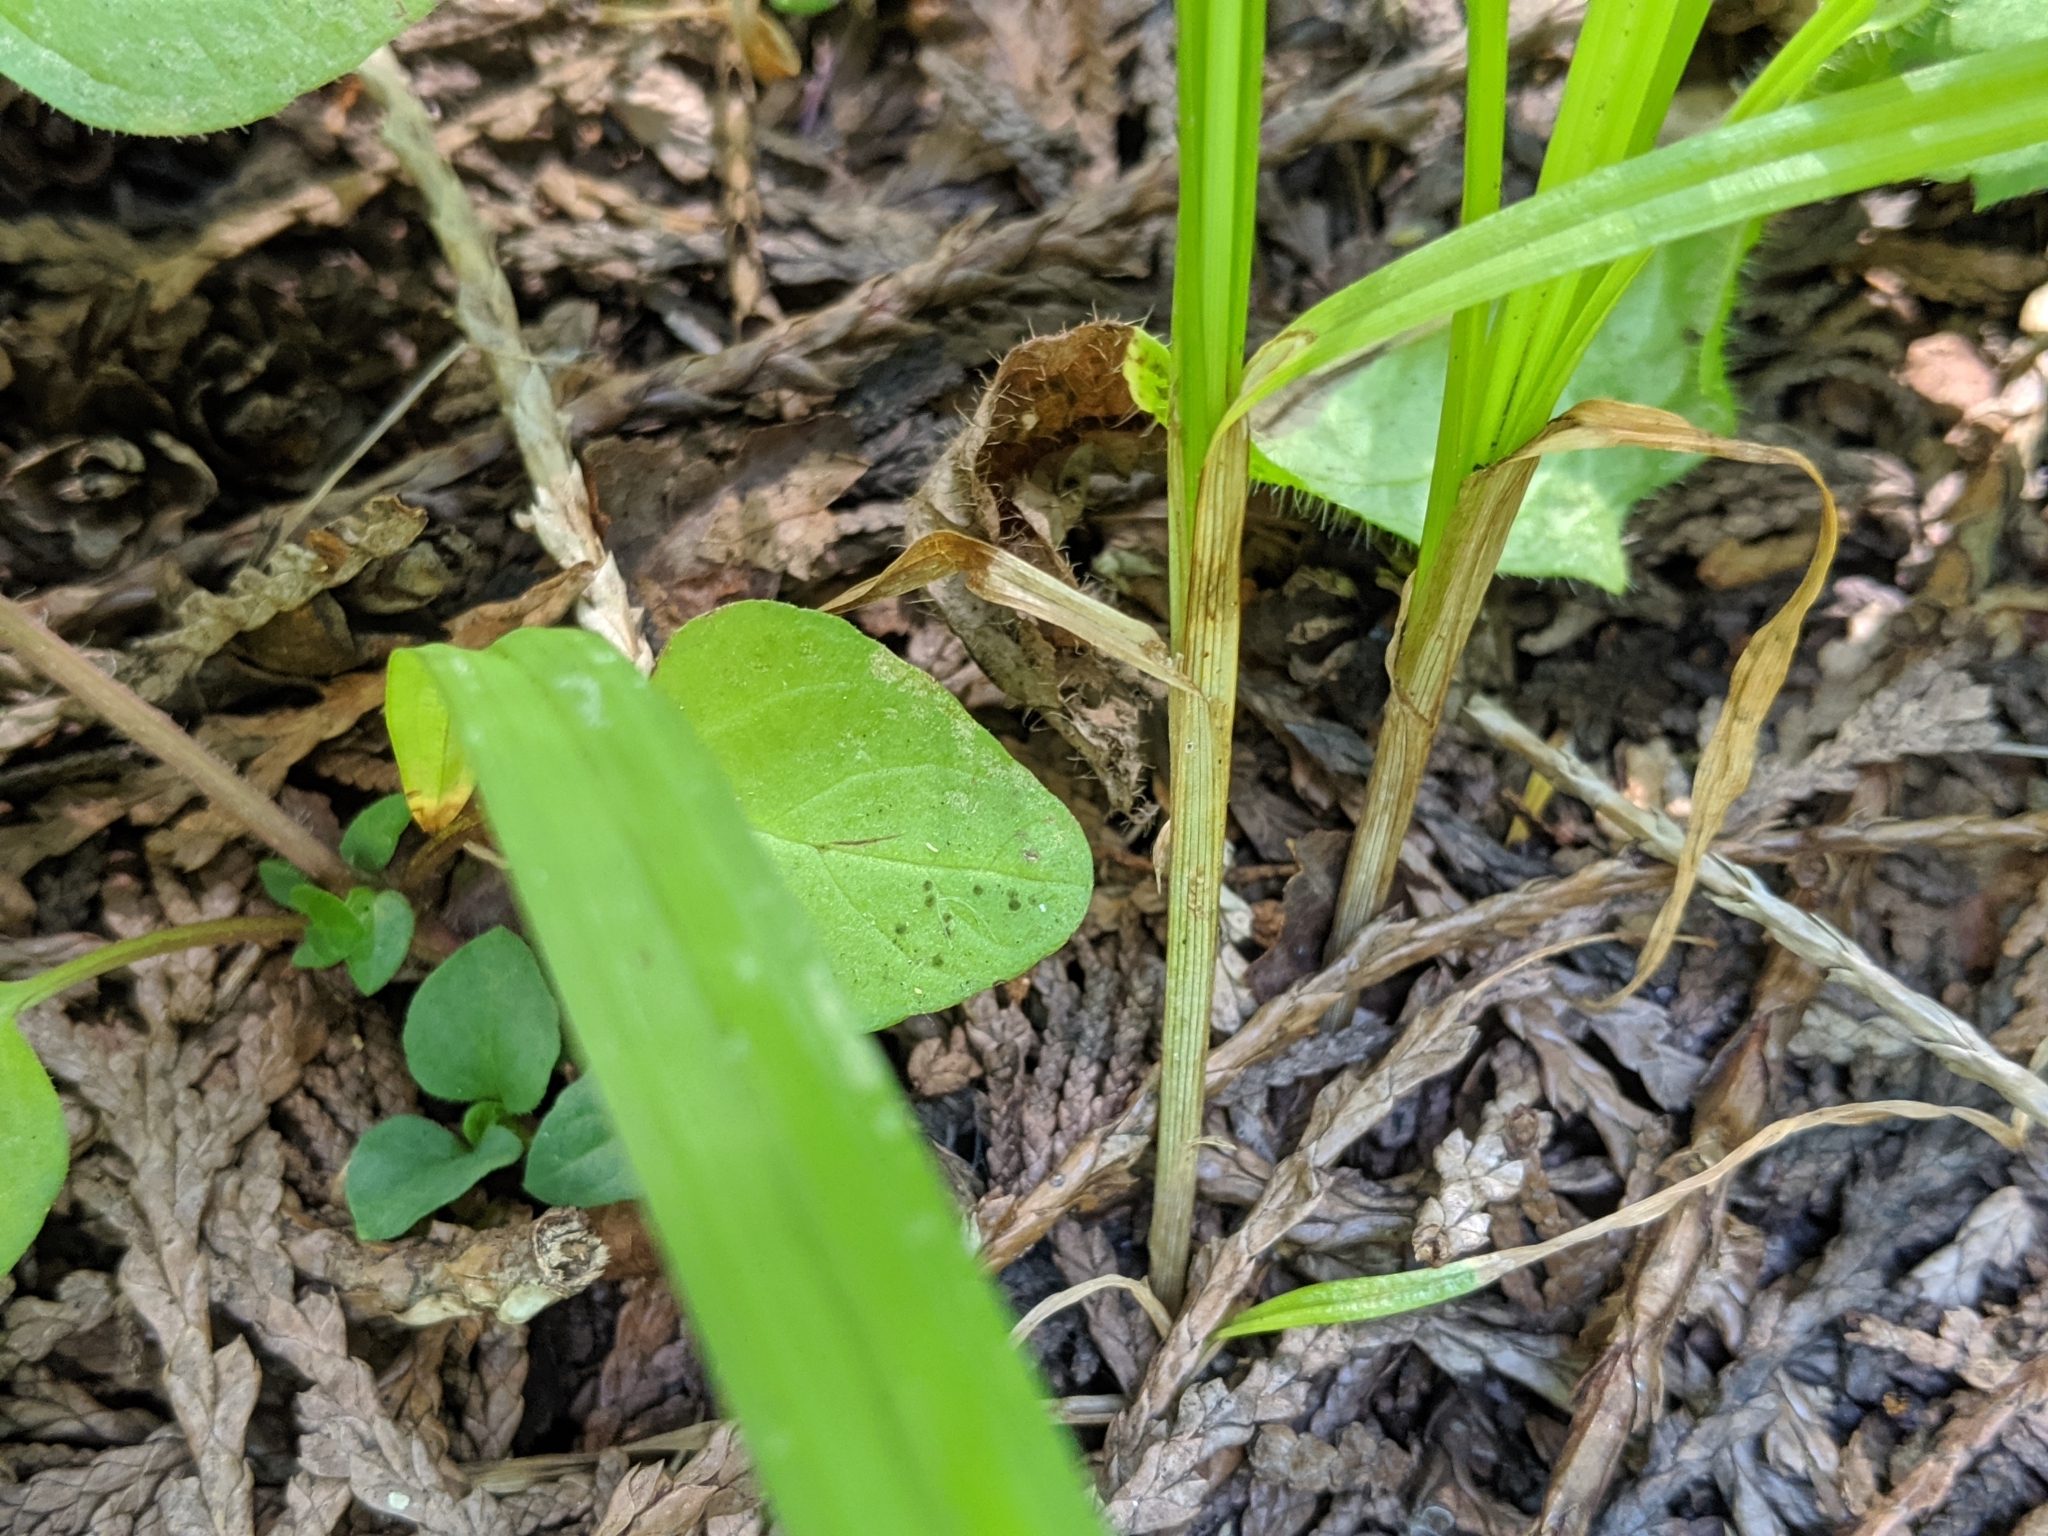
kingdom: Plantae
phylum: Tracheophyta
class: Liliopsida
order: Poales
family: Cyperaceae
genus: Carex
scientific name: Carex hendersonii
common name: Henderson's sedge
